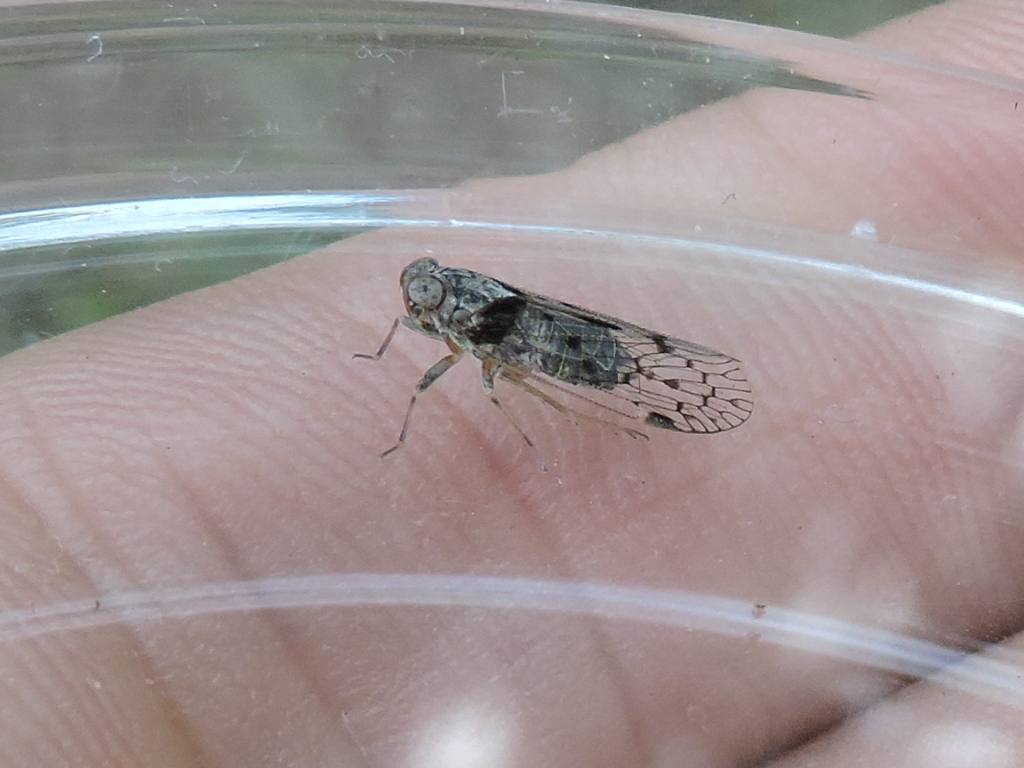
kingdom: Animalia
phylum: Arthropoda
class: Insecta
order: Hemiptera
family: Cixiidae
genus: Melanoliarus
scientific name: Melanoliarus aridus
